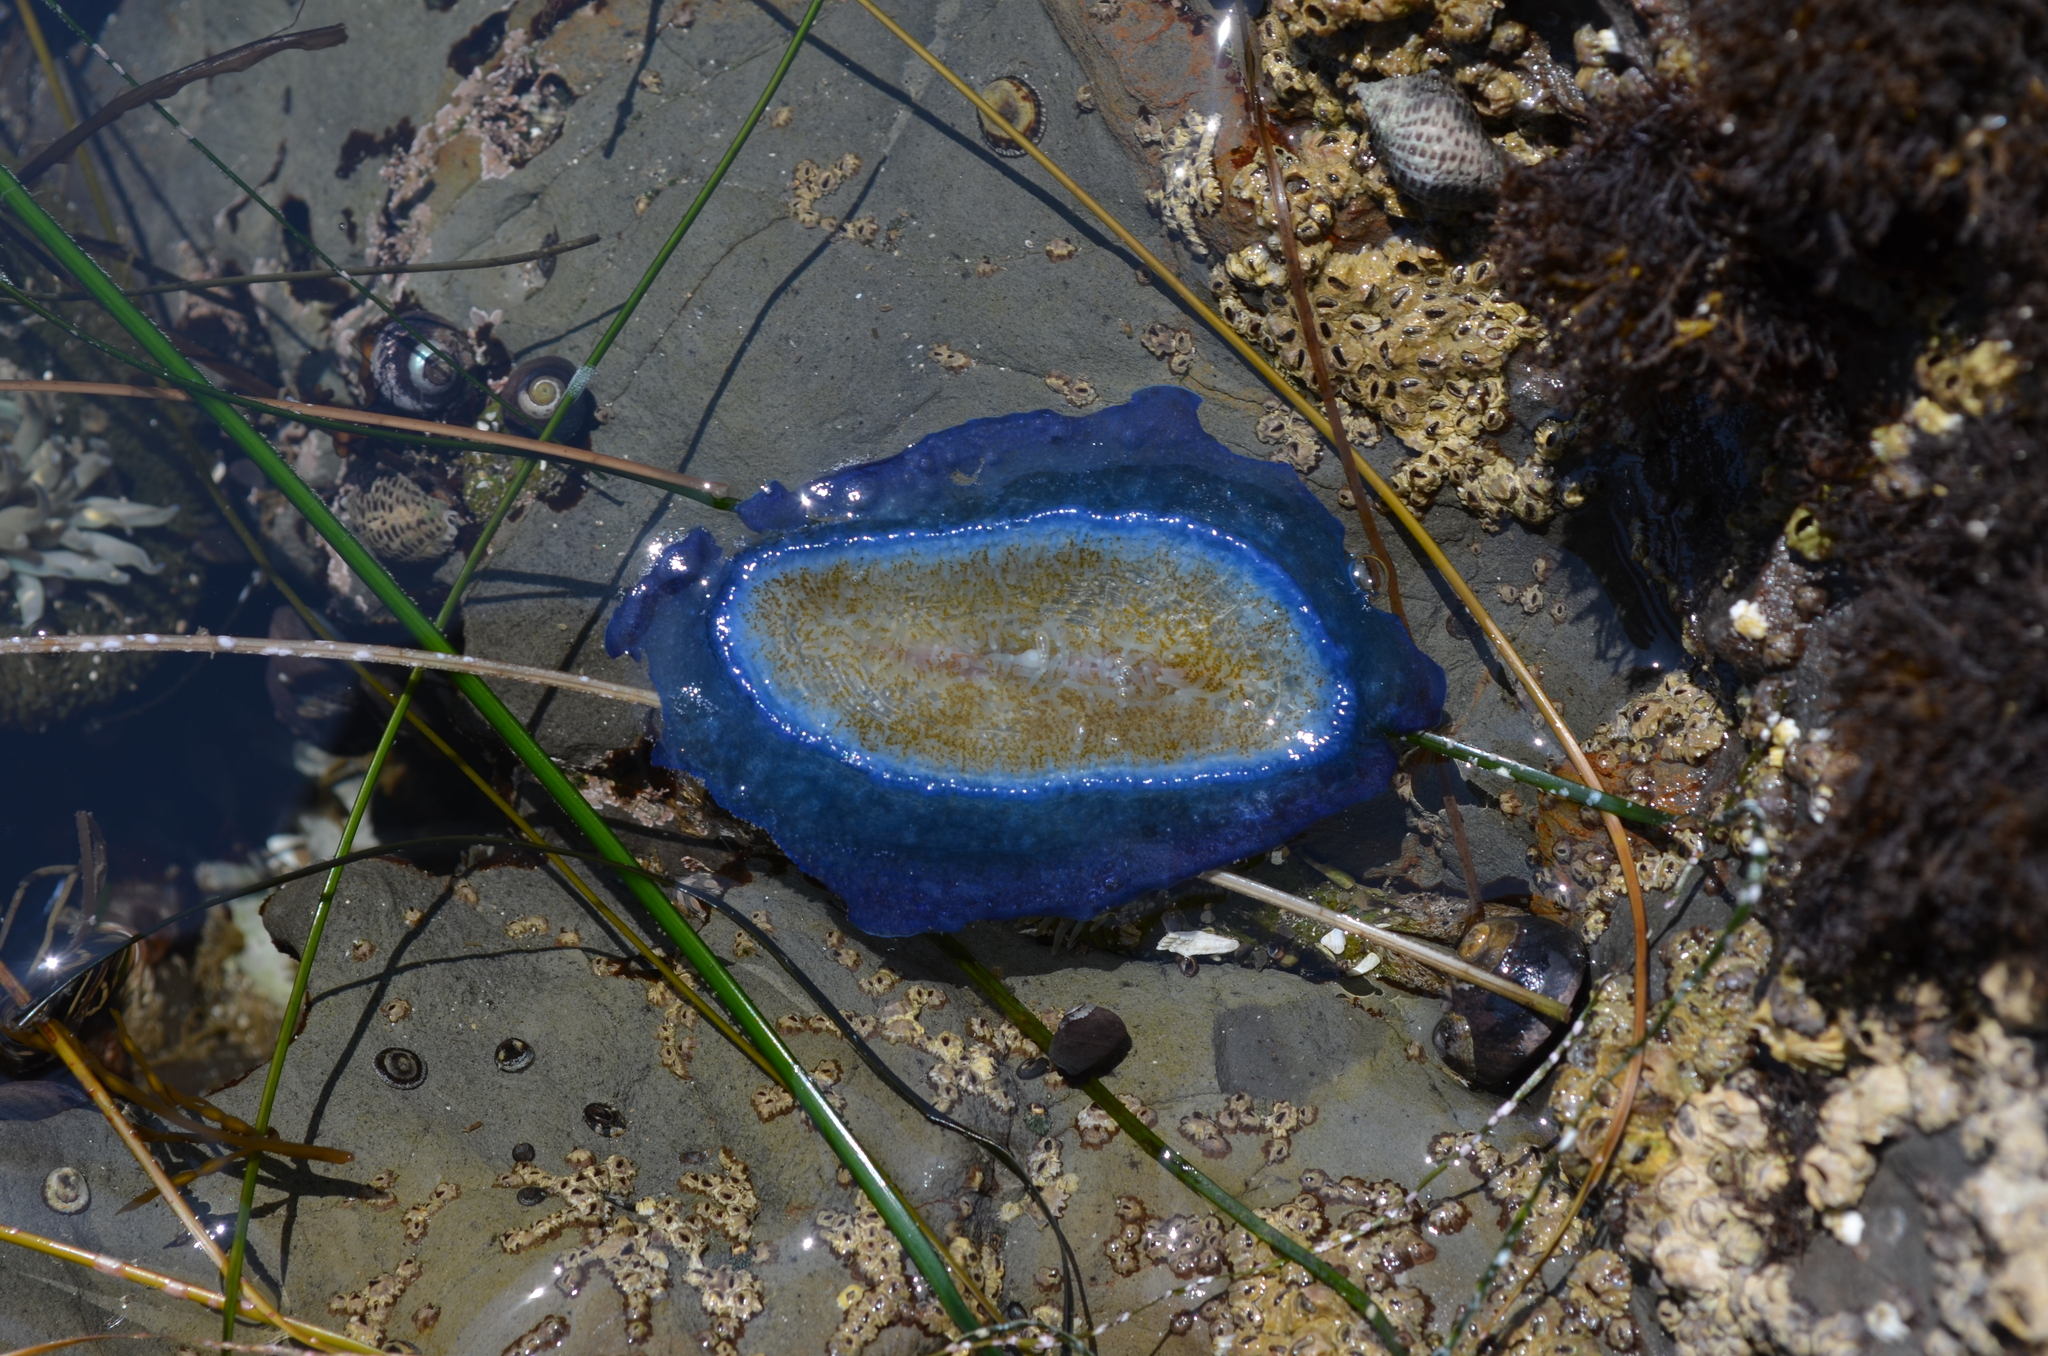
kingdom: Animalia
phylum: Cnidaria
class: Hydrozoa
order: Anthoathecata
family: Porpitidae
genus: Velella
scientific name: Velella velella
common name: By-the-wind-sailor
